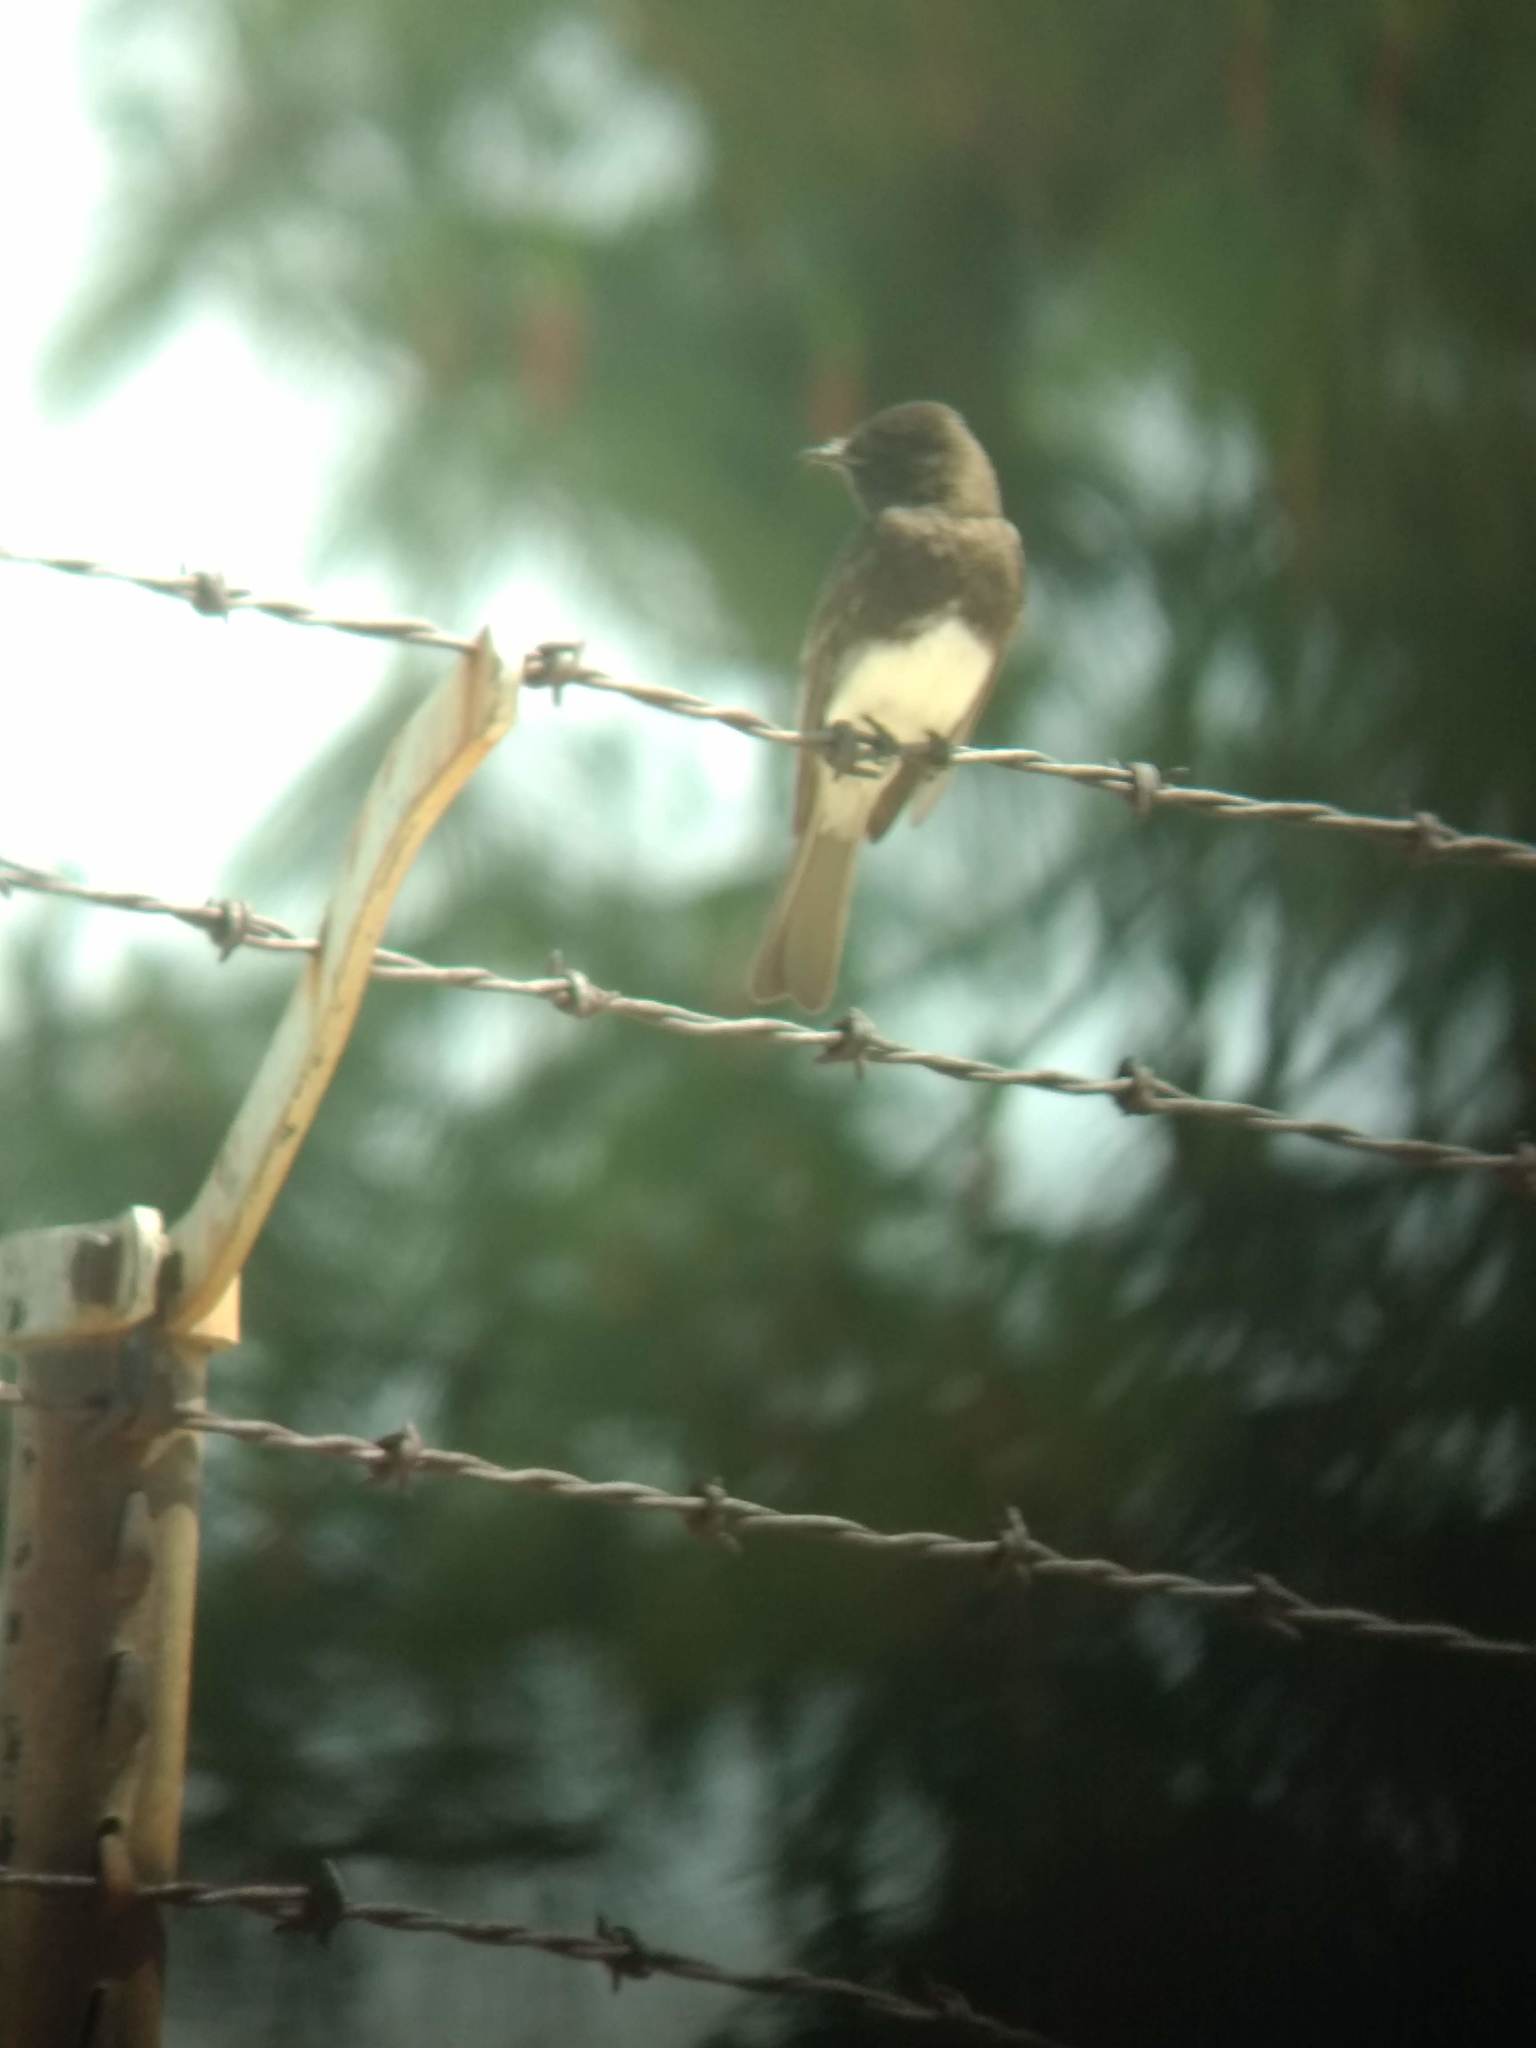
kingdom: Animalia
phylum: Chordata
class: Aves
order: Passeriformes
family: Tyrannidae
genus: Sayornis
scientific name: Sayornis nigricans
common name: Black phoebe
